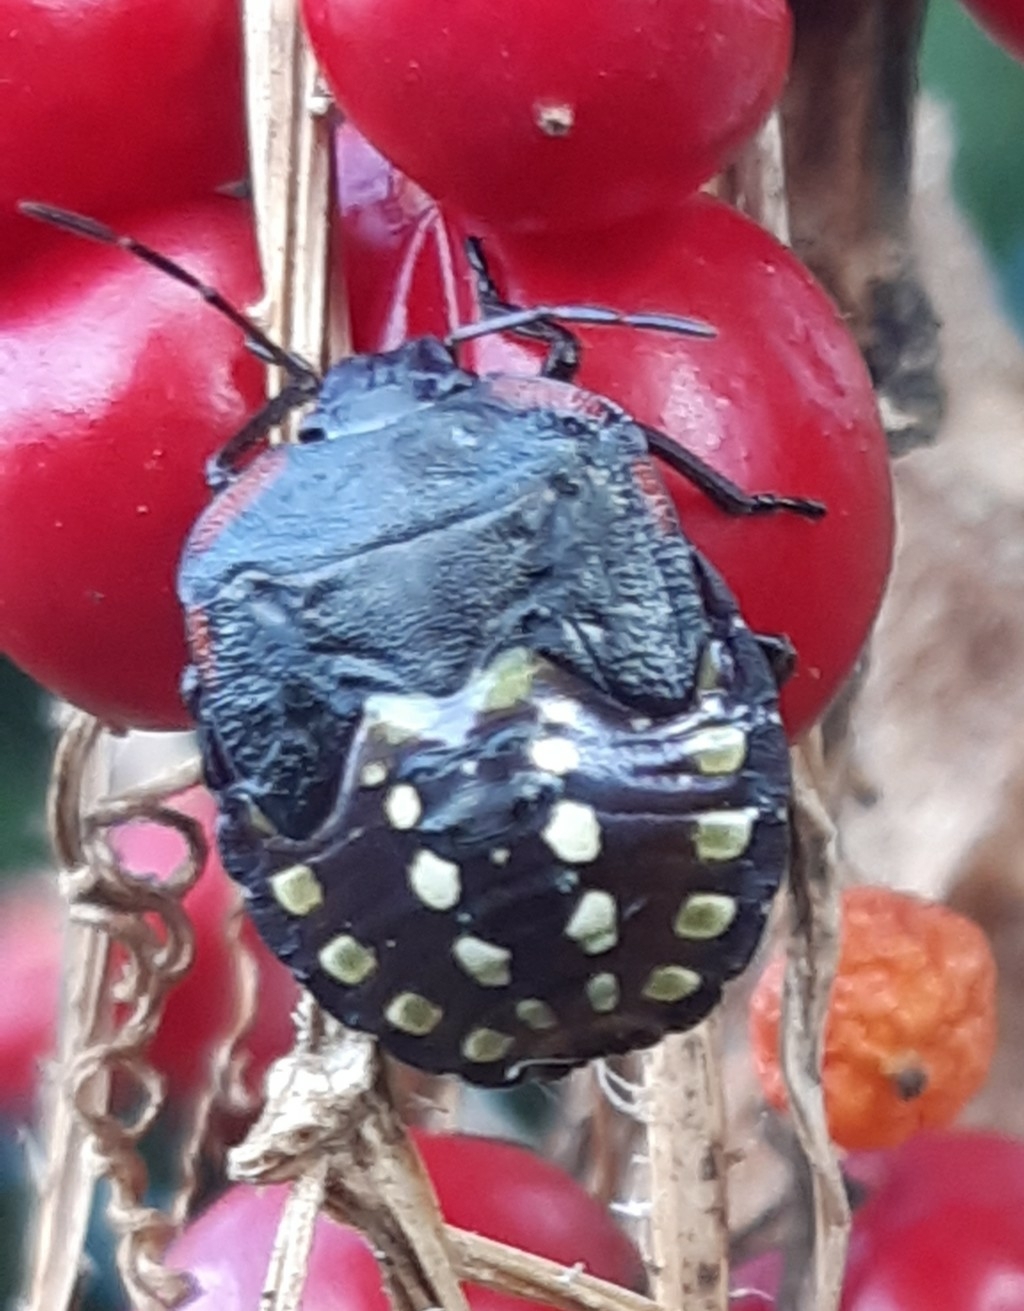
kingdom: Animalia
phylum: Arthropoda
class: Insecta
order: Hemiptera
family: Pentatomidae
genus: Nezara
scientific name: Nezara viridula
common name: Southern green stink bug
